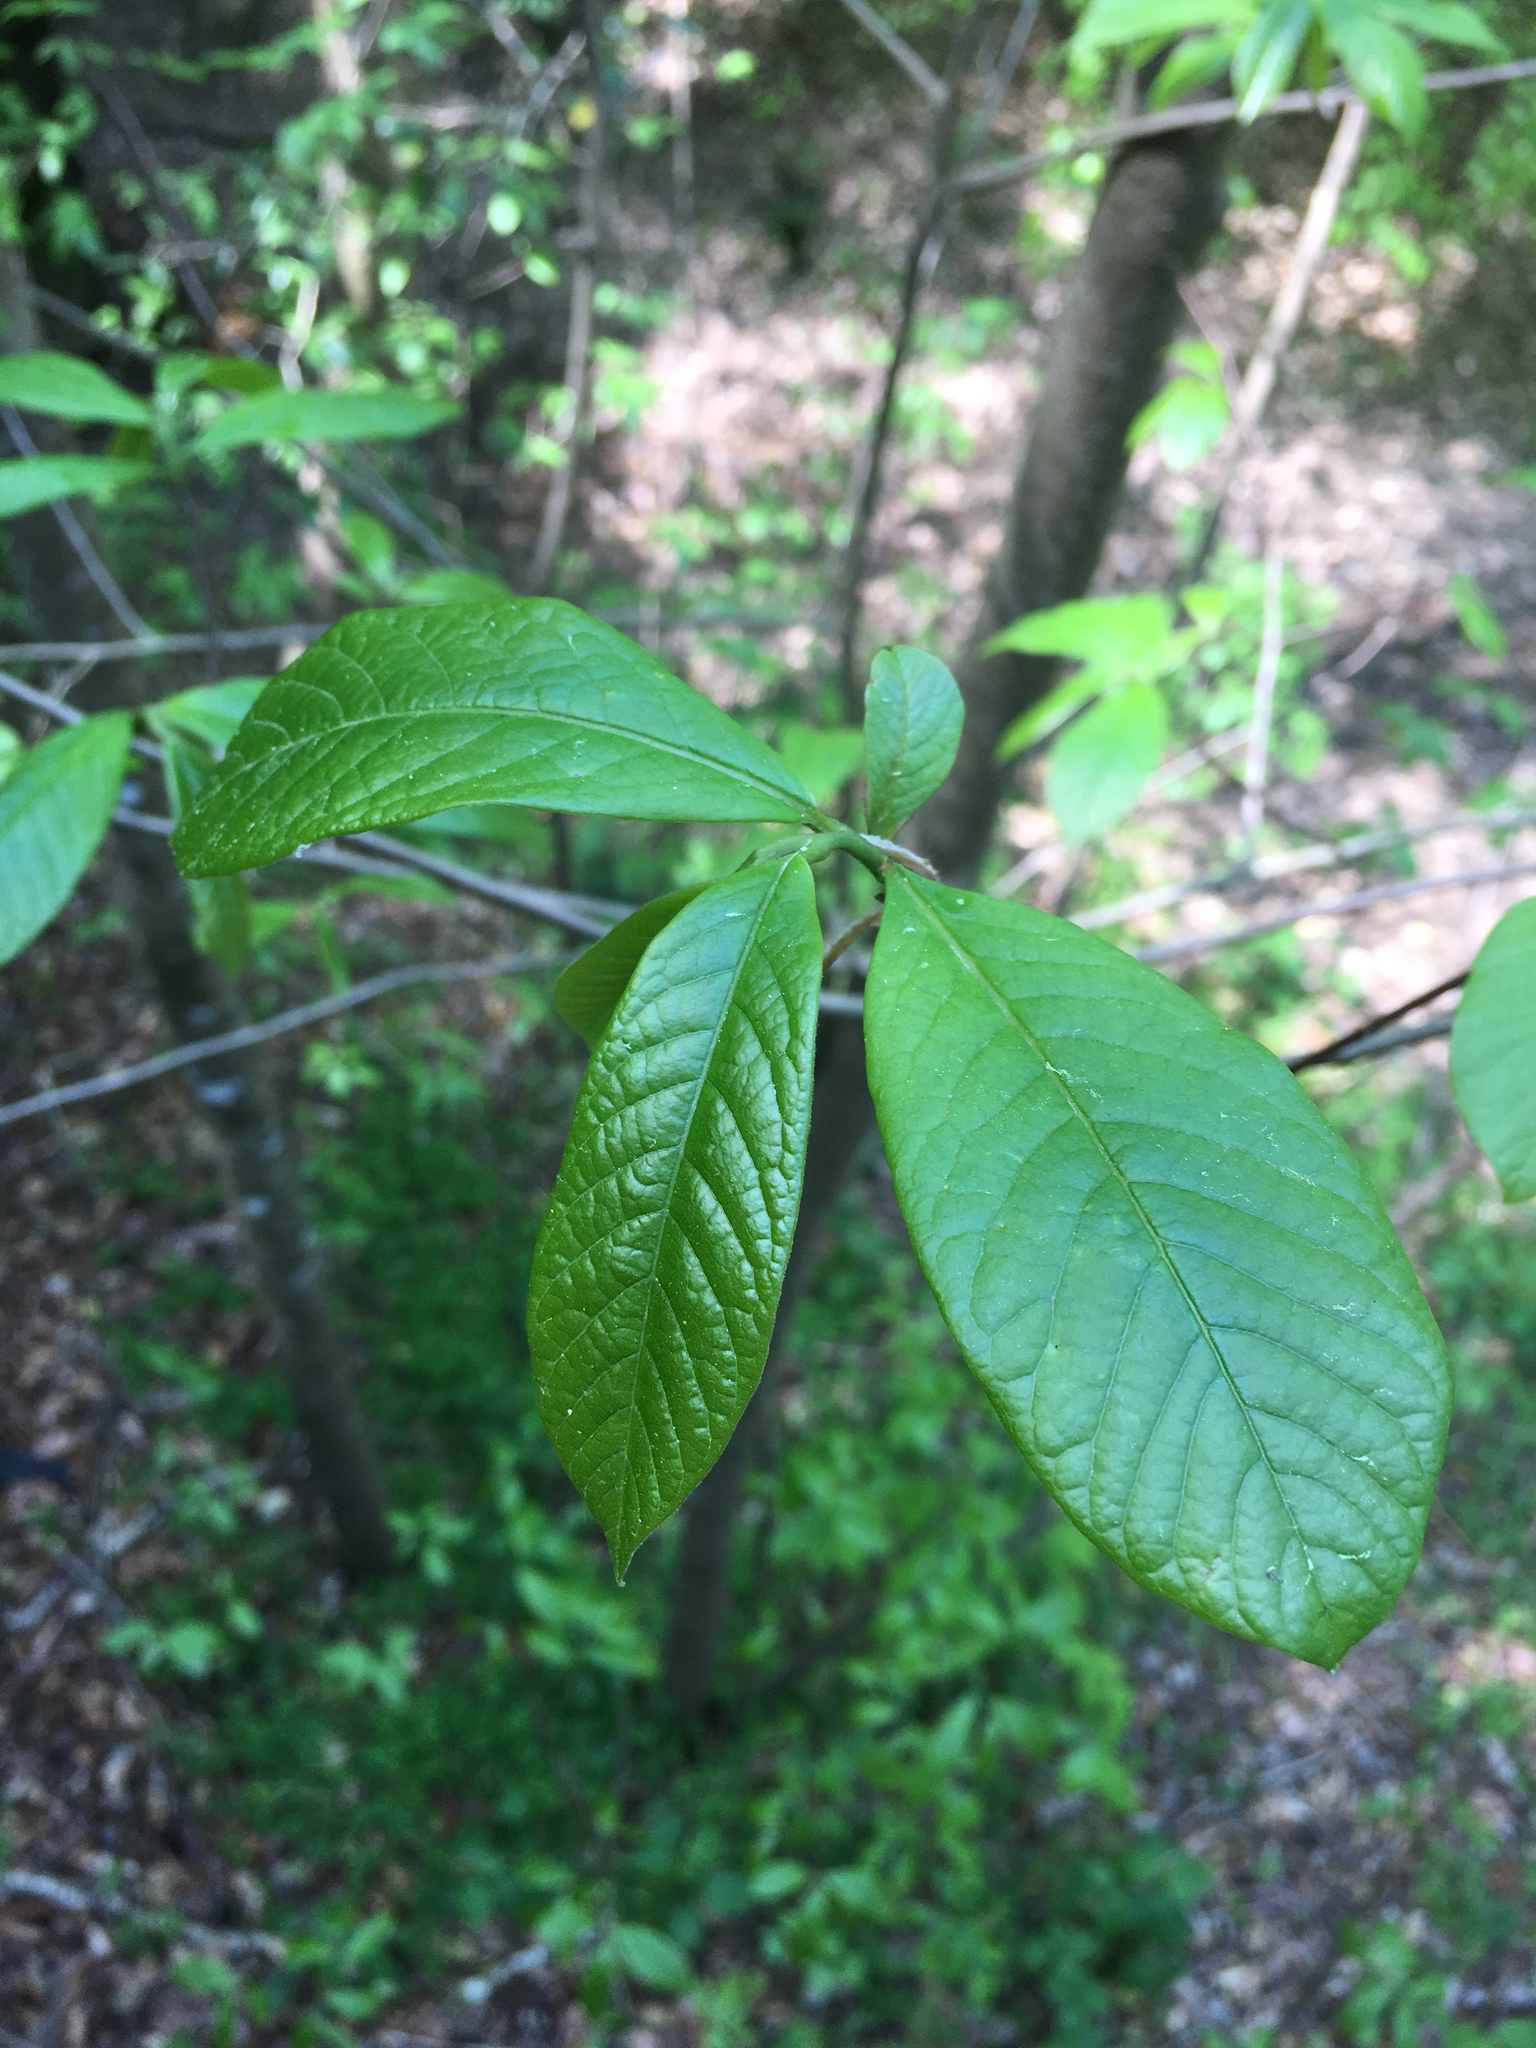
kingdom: Plantae
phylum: Tracheophyta
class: Magnoliopsida
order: Magnoliales
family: Annonaceae
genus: Asimina
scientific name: Asimina triloba
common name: Dog-banana
